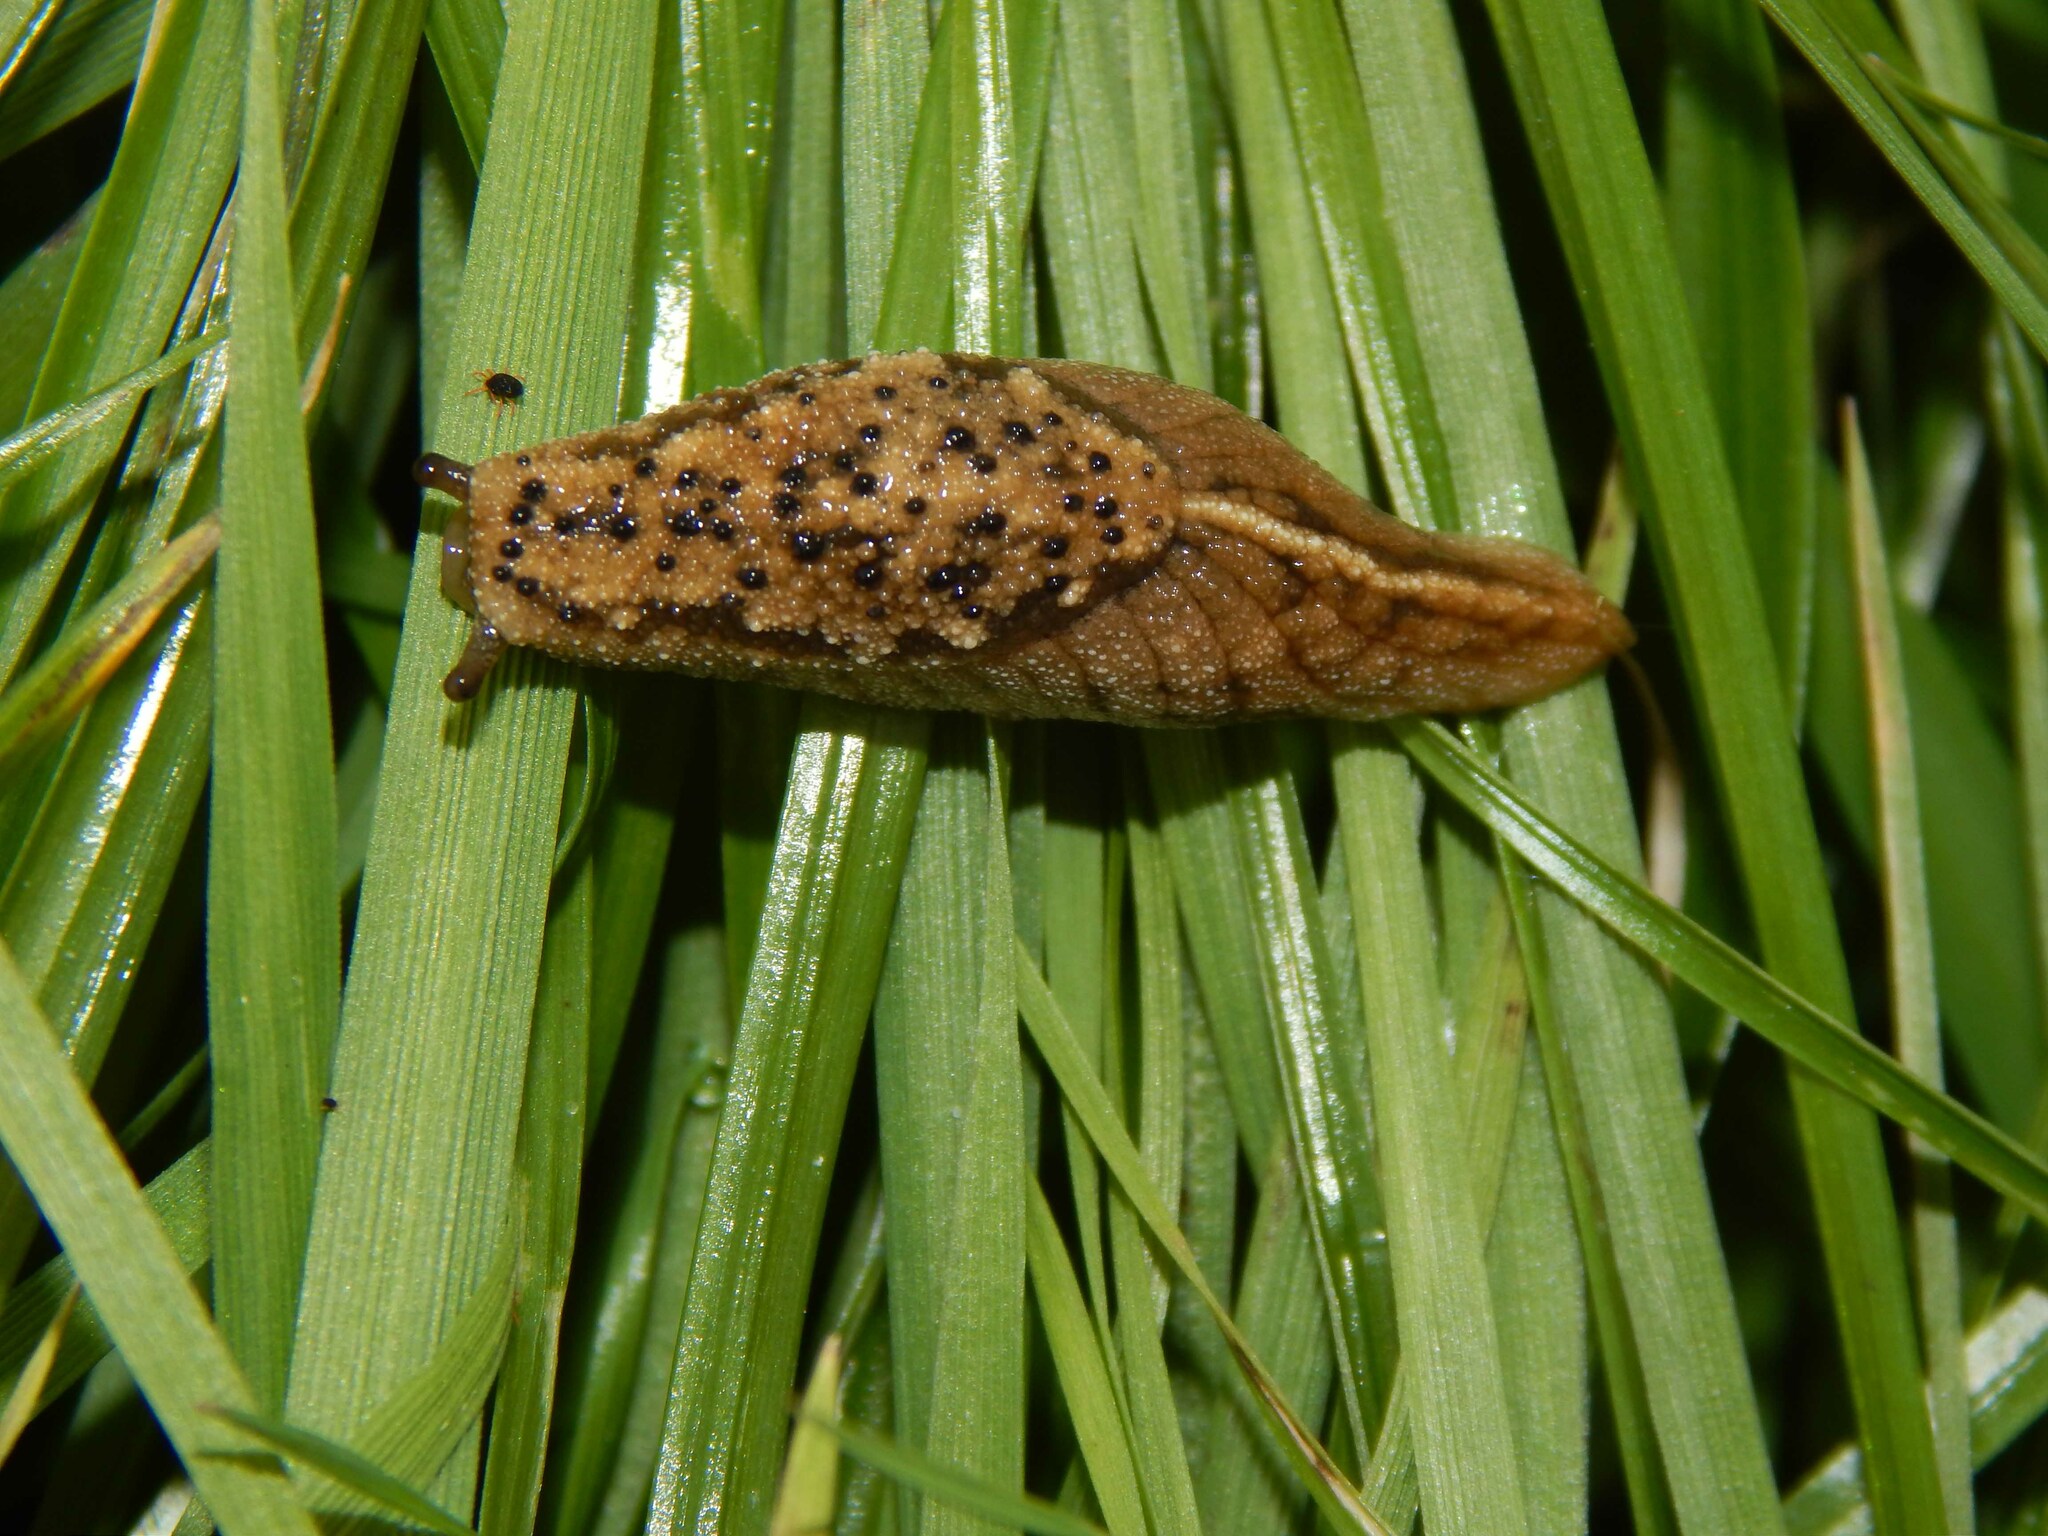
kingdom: Animalia
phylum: Mollusca
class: Gastropoda
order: Stylommatophora
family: Oopeltidae
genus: Oopelta
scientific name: Oopelta nigropunctata
